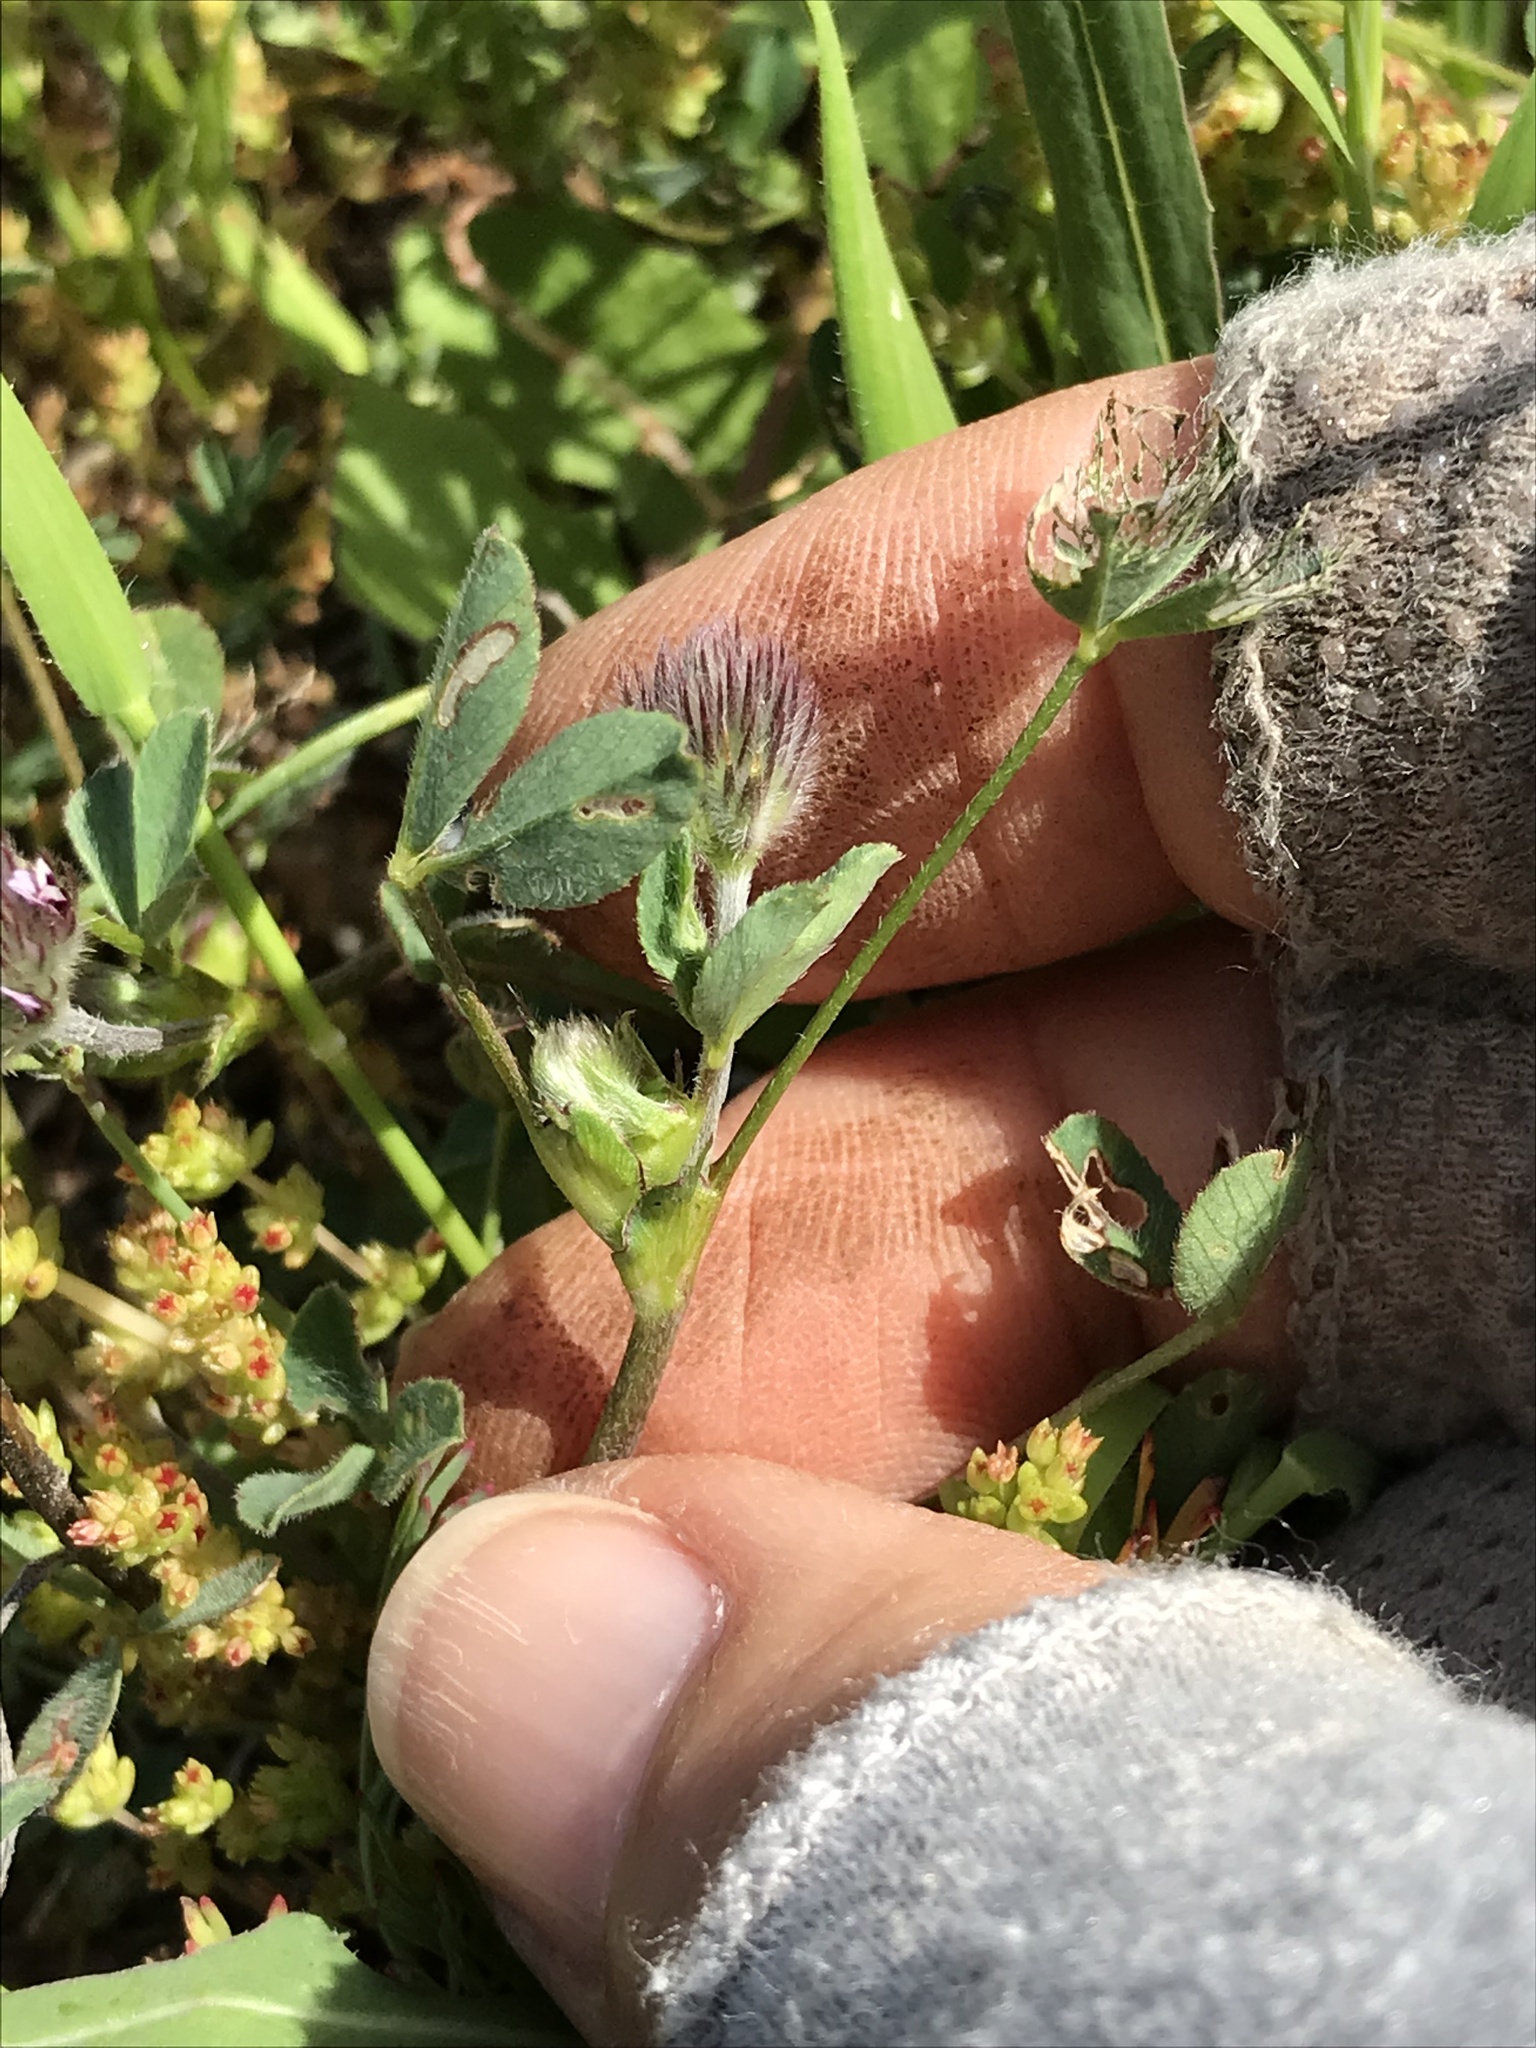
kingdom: Plantae
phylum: Tracheophyta
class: Magnoliopsida
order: Fabales
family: Fabaceae
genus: Trifolium
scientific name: Trifolium albopurpureum
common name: Rancheria clover
